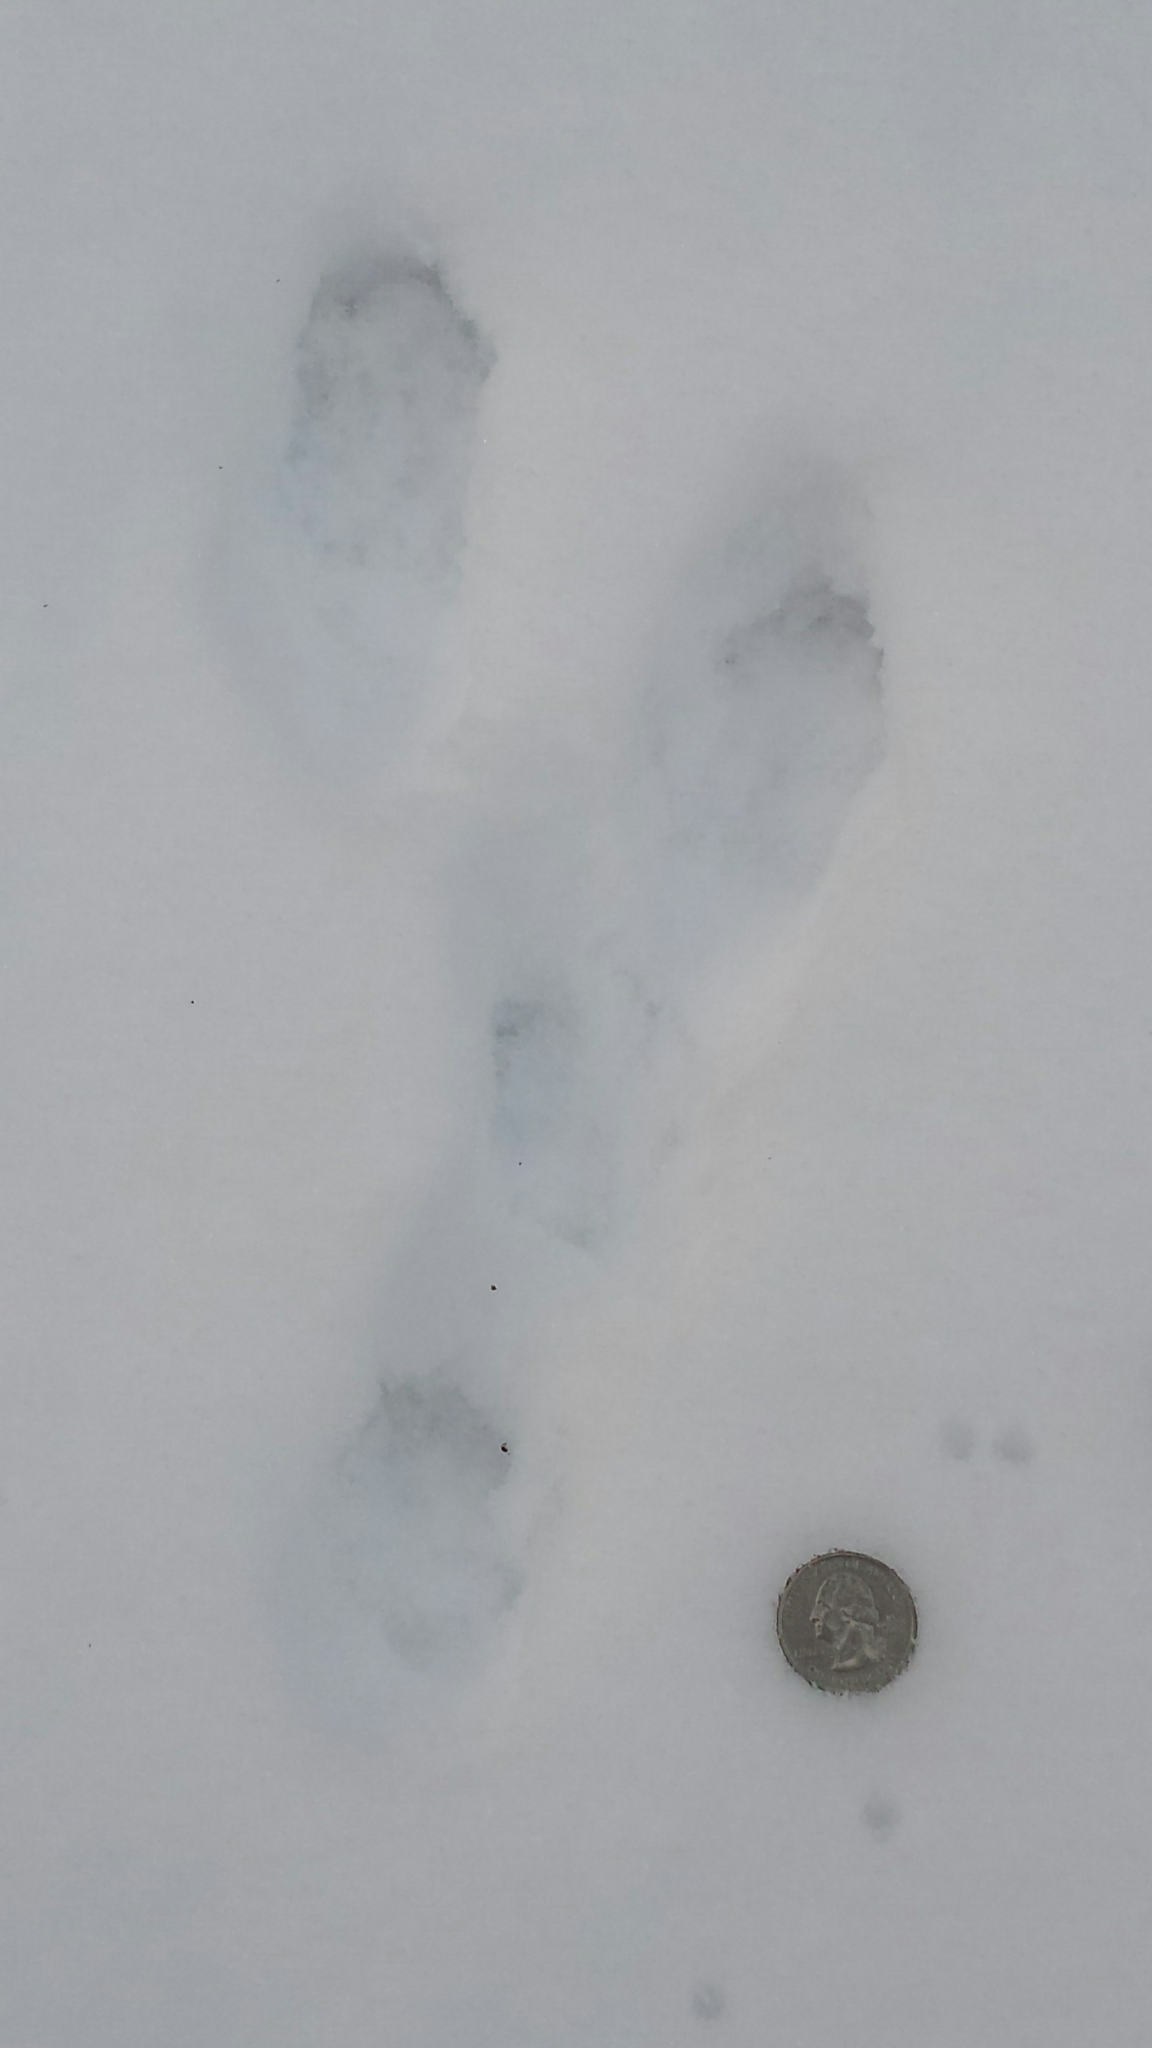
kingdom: Animalia
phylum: Chordata
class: Mammalia
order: Lagomorpha
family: Leporidae
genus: Lepus
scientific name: Lepus americanus
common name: Snowshoe hare
